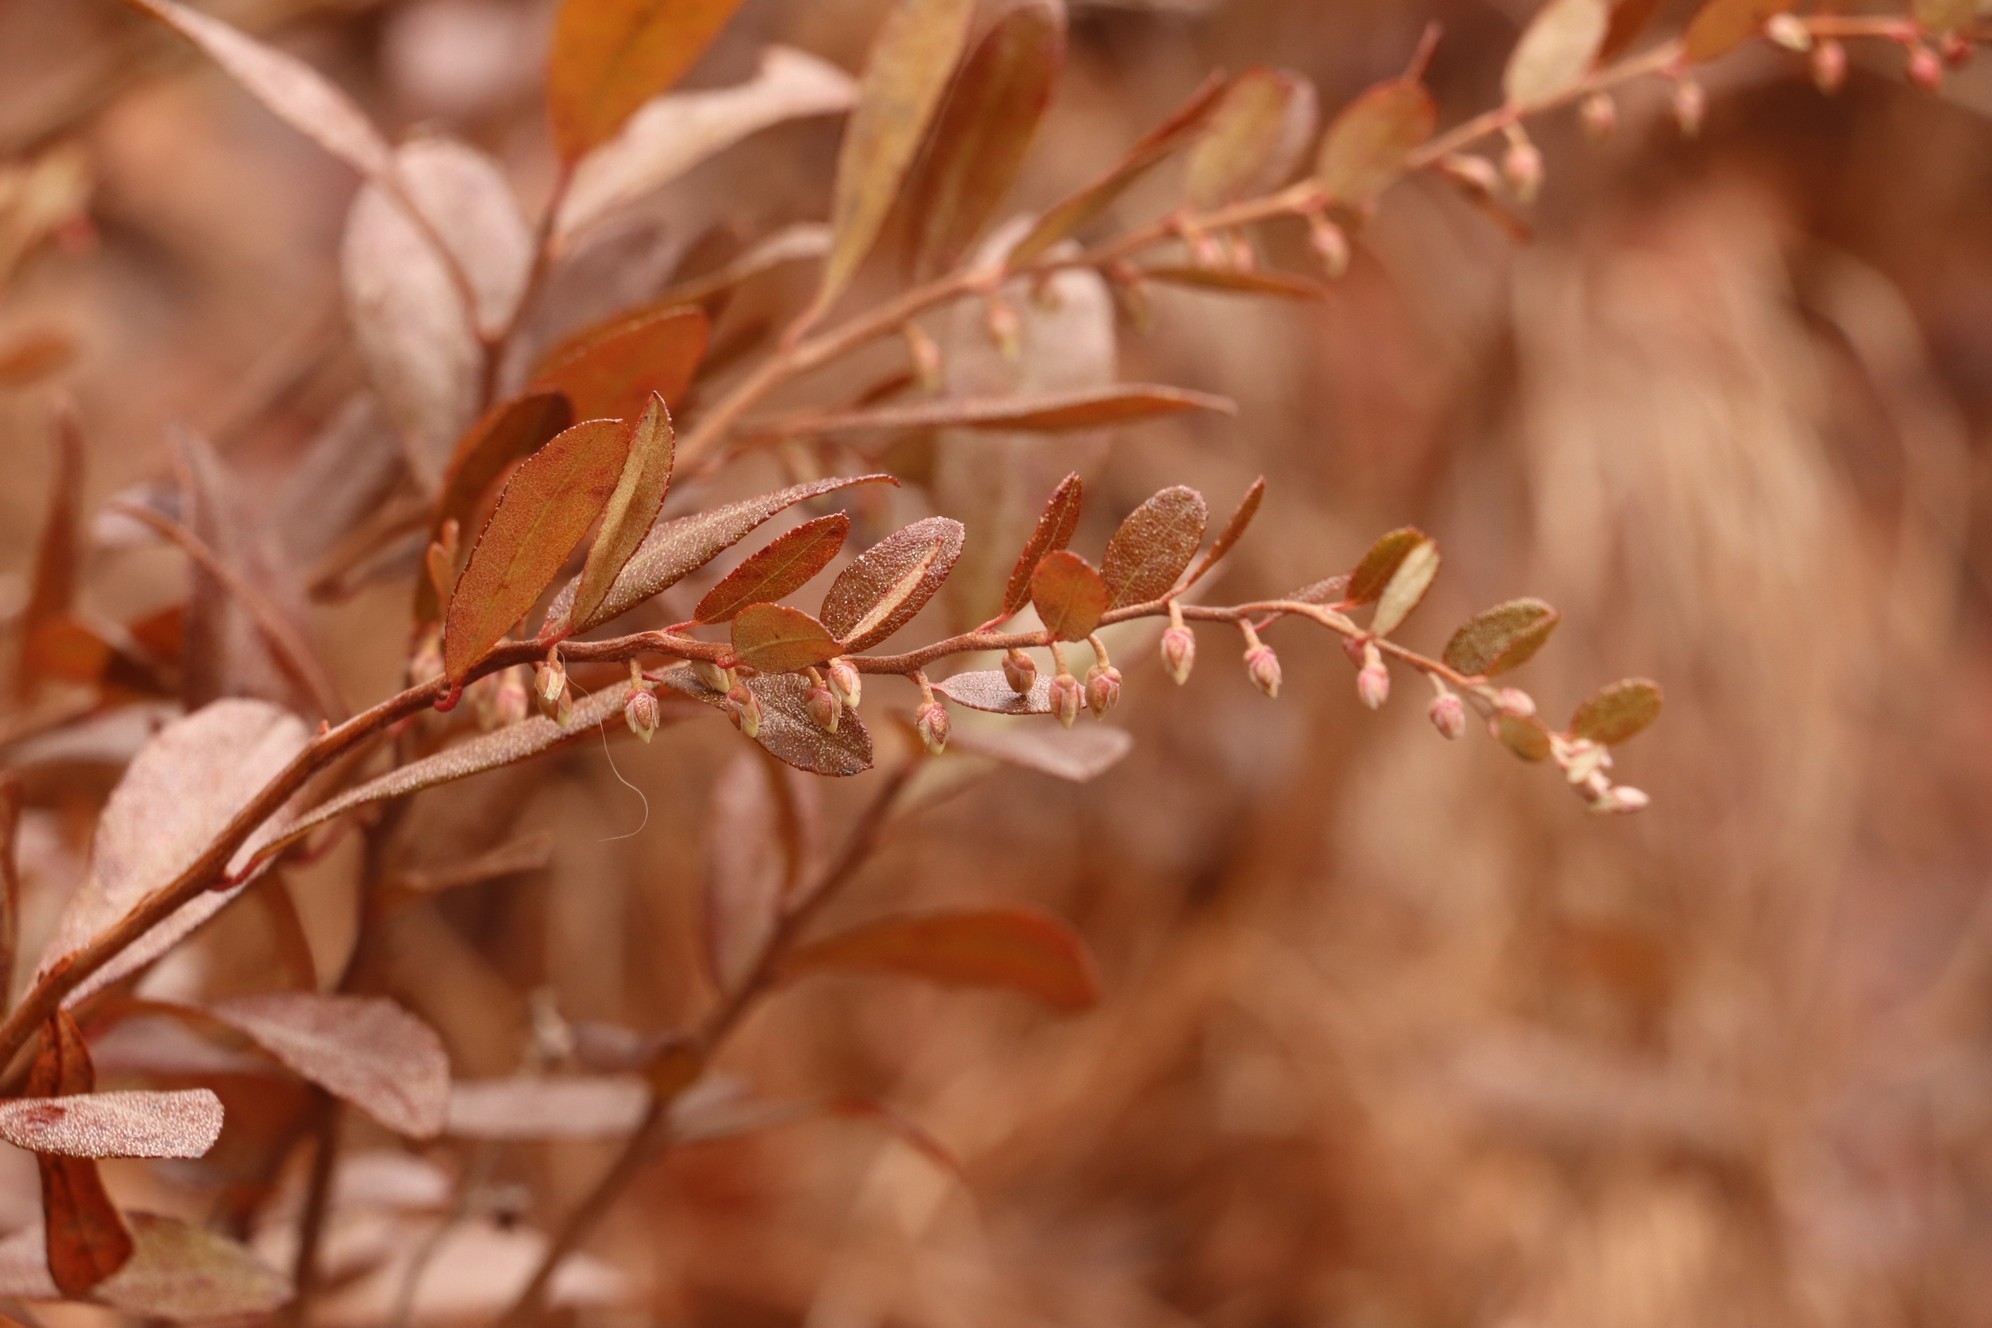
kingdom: Plantae
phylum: Tracheophyta
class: Magnoliopsida
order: Ericales
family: Ericaceae
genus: Chamaedaphne
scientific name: Chamaedaphne calyculata
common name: Leatherleaf
